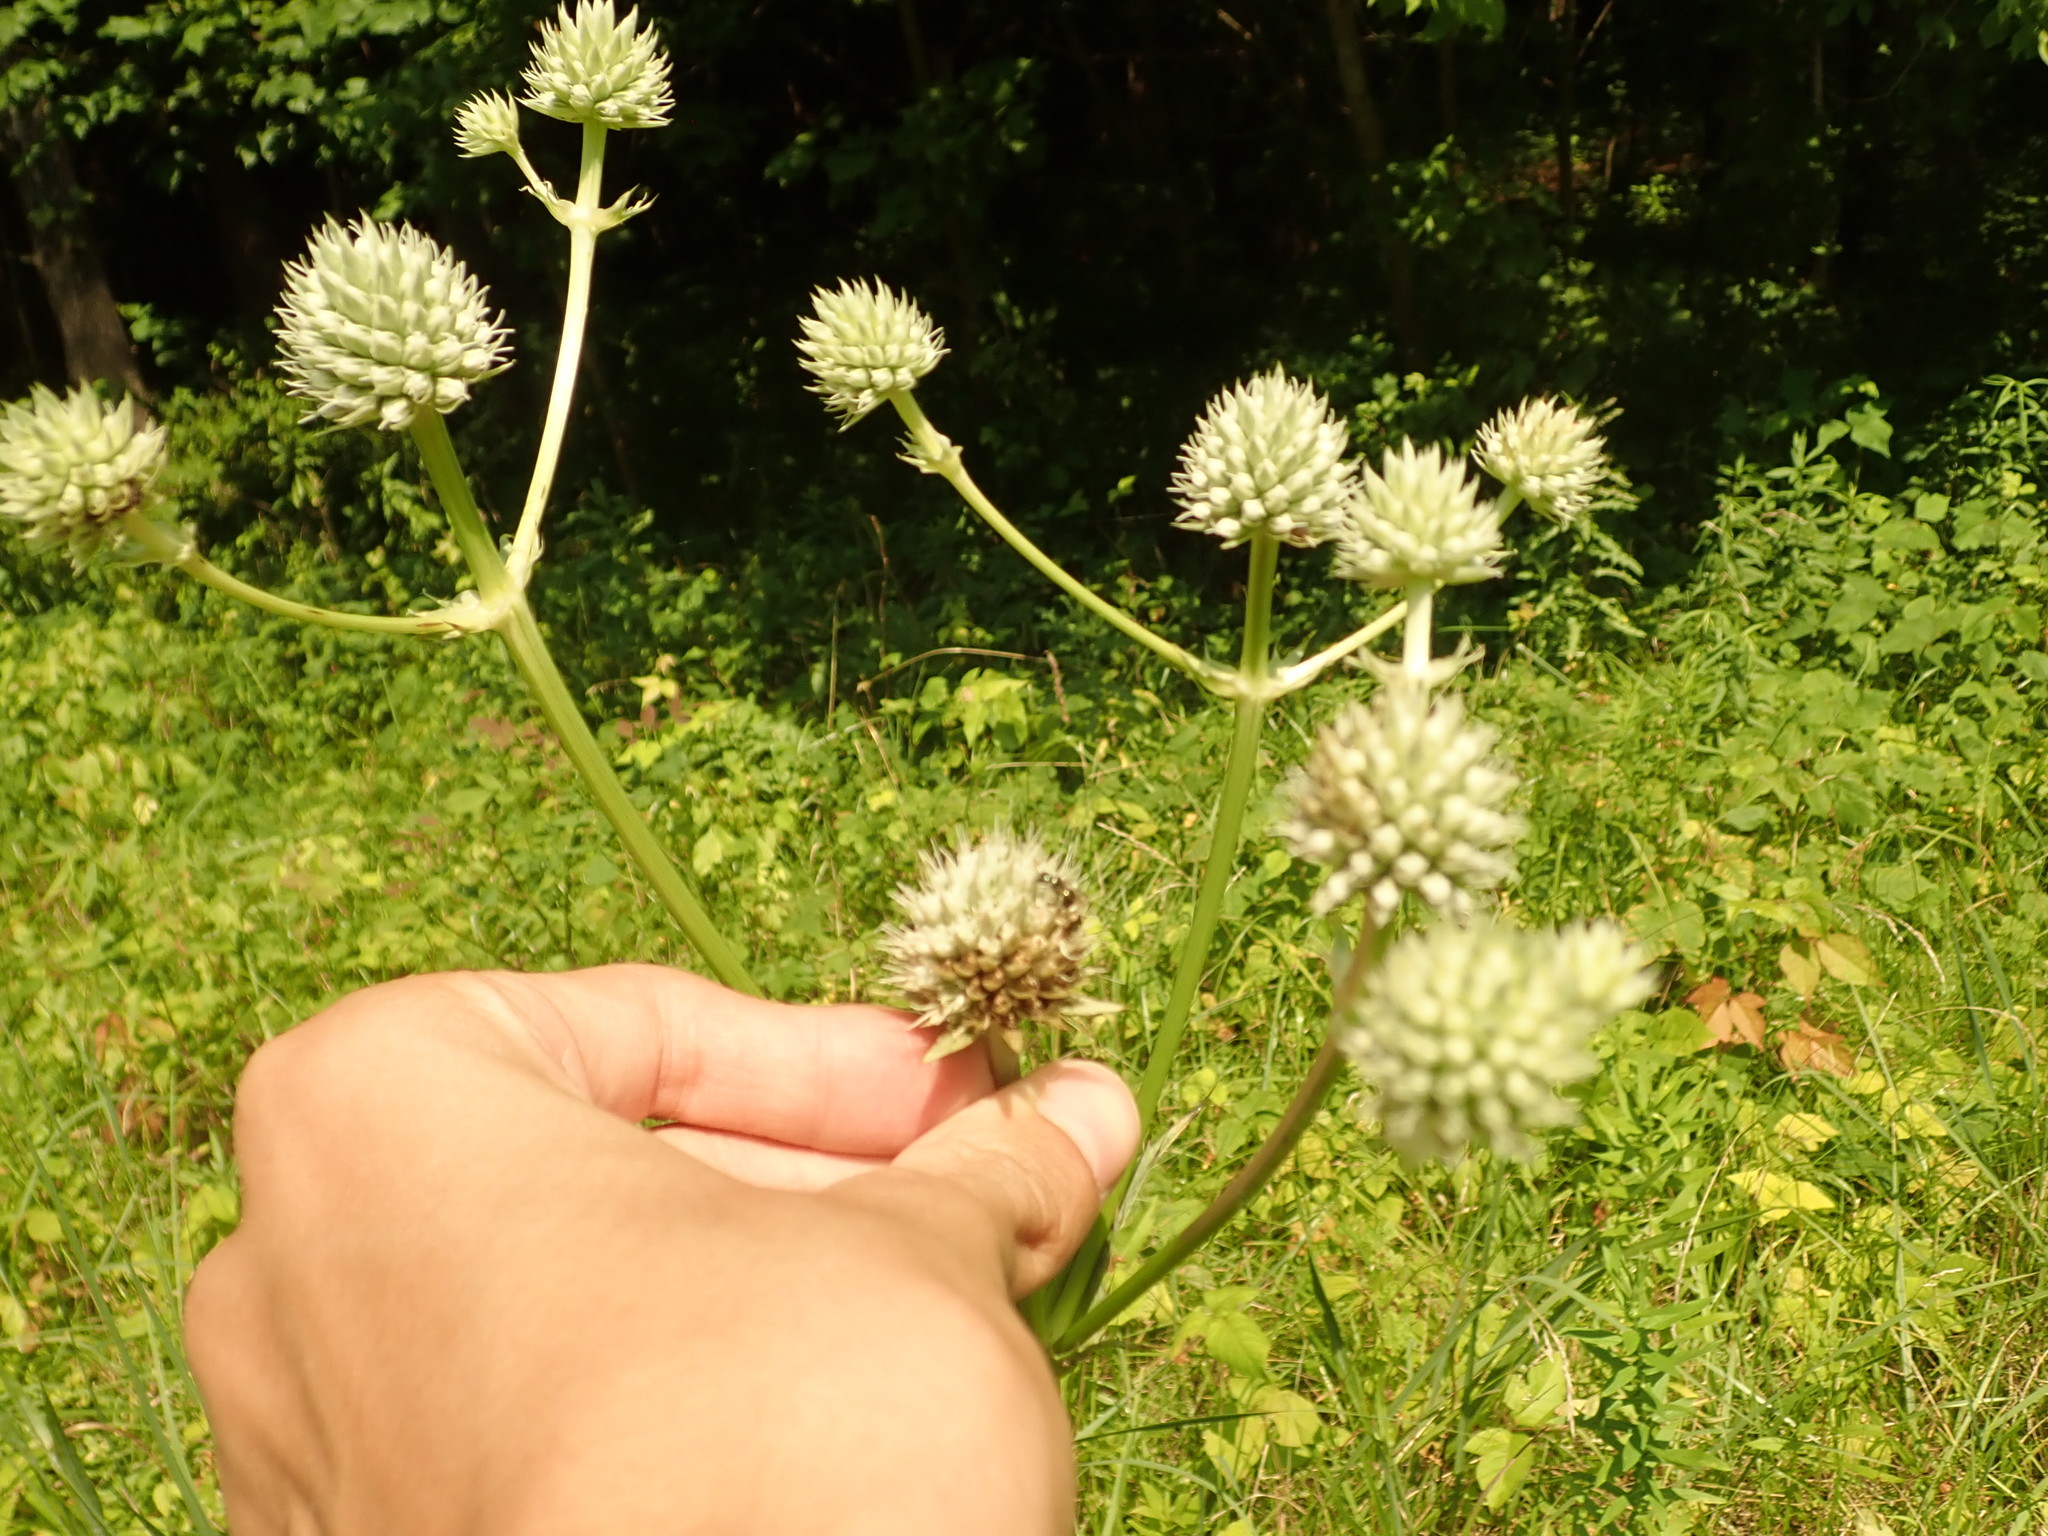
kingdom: Plantae
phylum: Tracheophyta
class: Magnoliopsida
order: Apiales
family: Apiaceae
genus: Eryngium
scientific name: Eryngium yuccifolium
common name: Button eryngo
